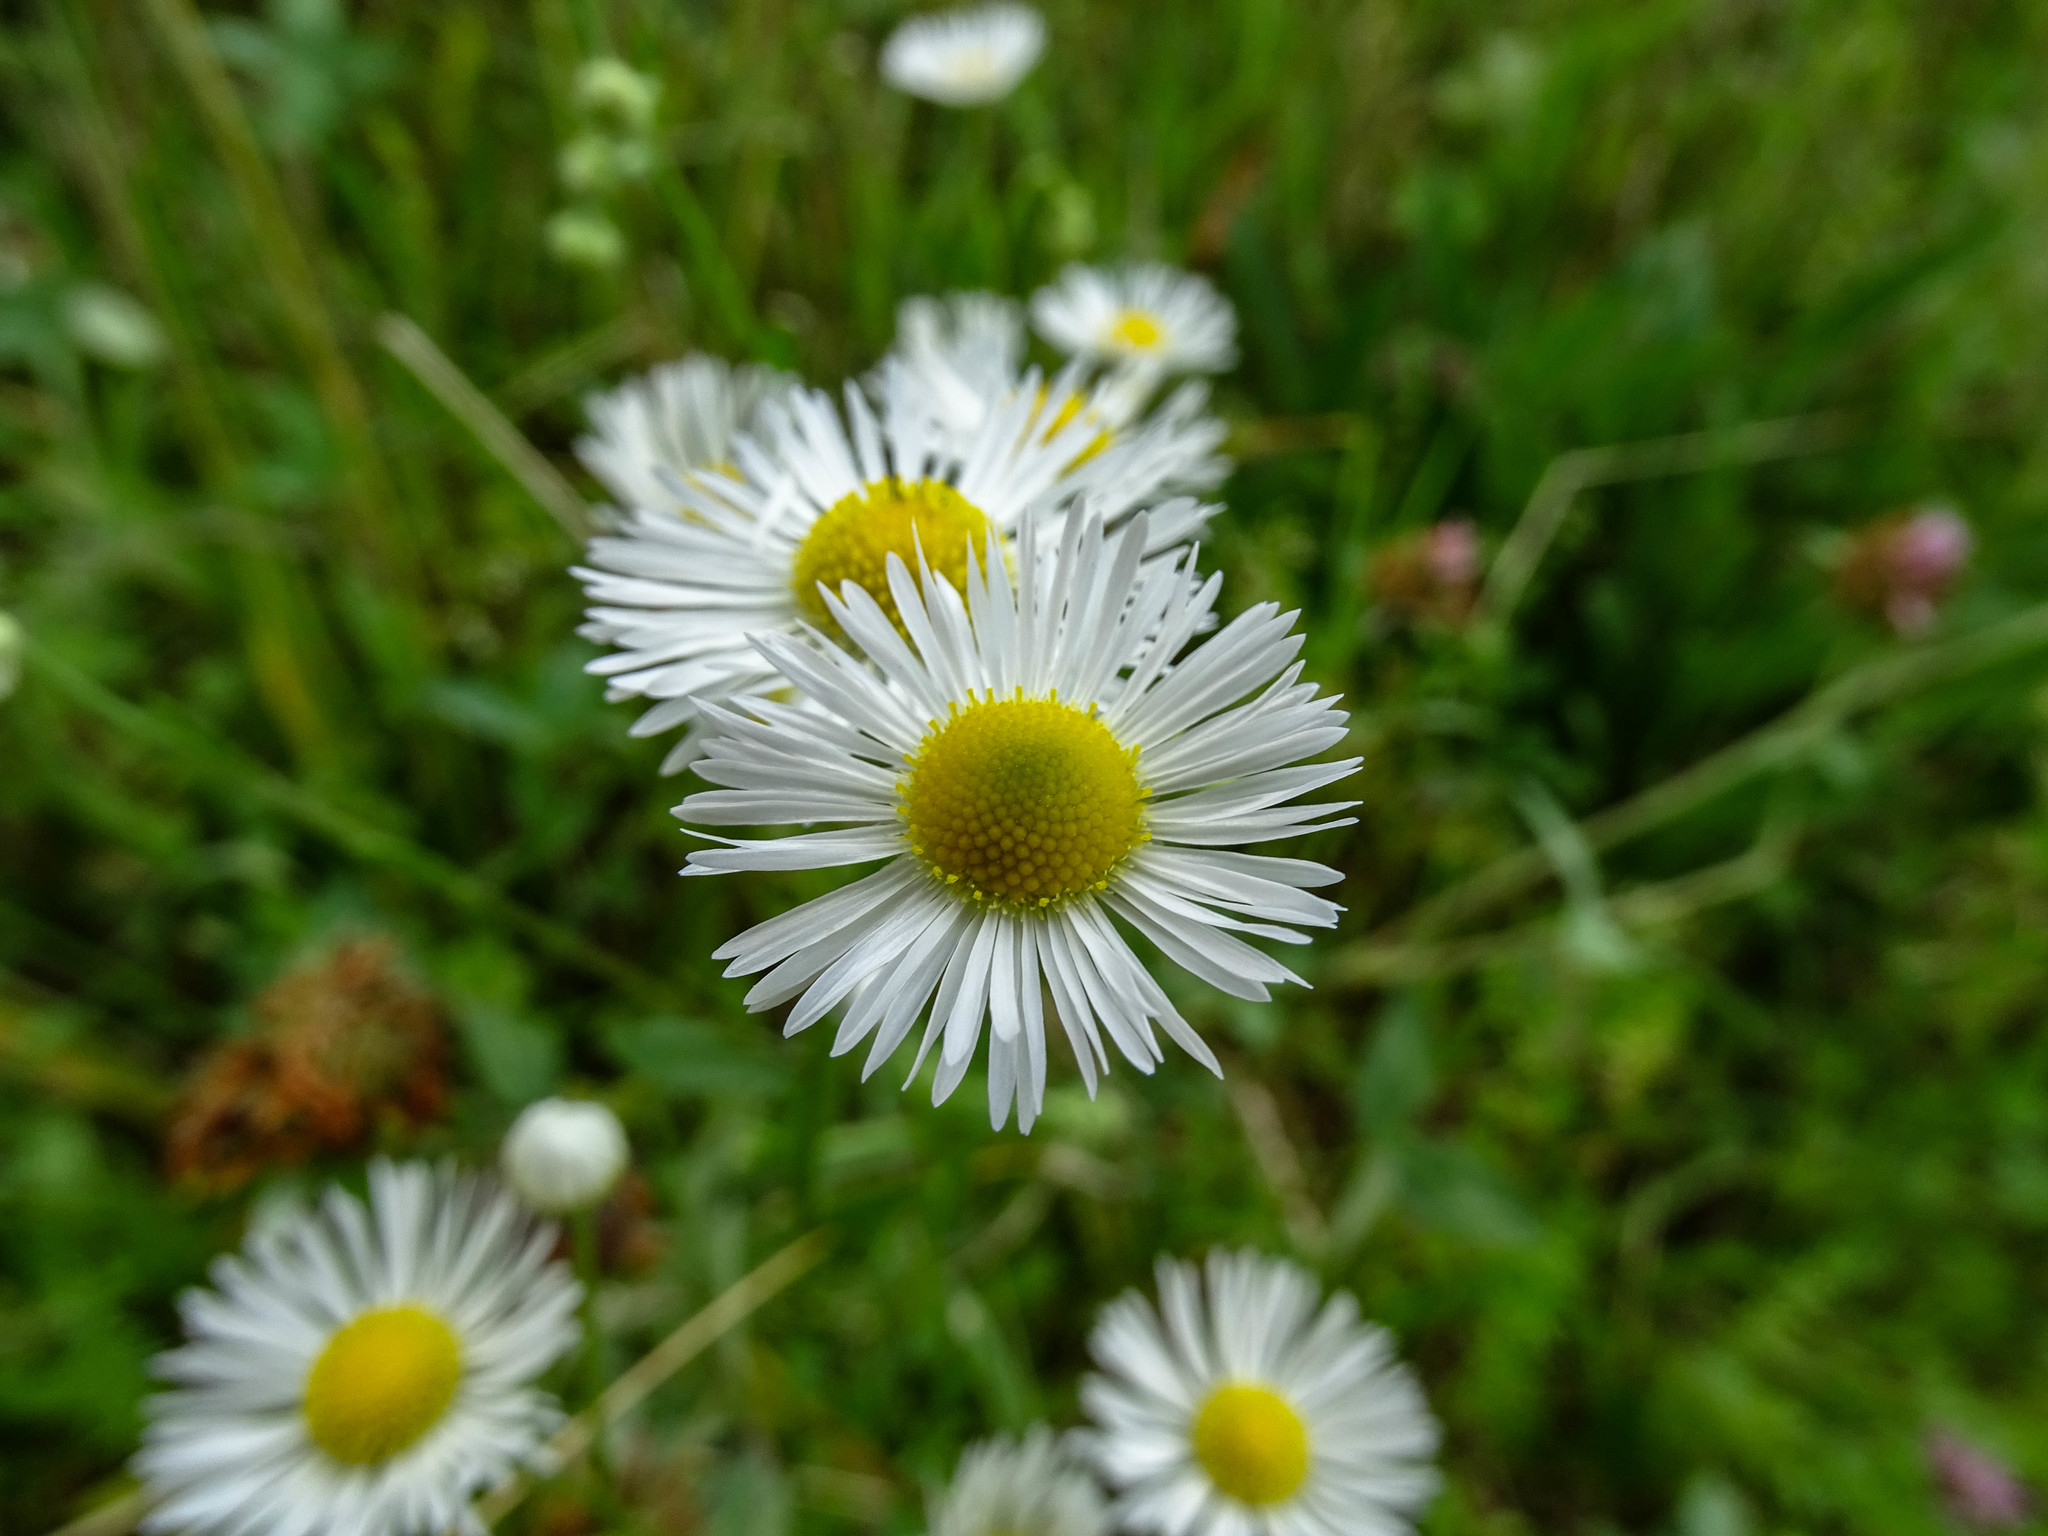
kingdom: Plantae
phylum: Tracheophyta
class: Magnoliopsida
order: Asterales
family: Asteraceae
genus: Erigeron
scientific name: Erigeron annuus
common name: Tall fleabane
